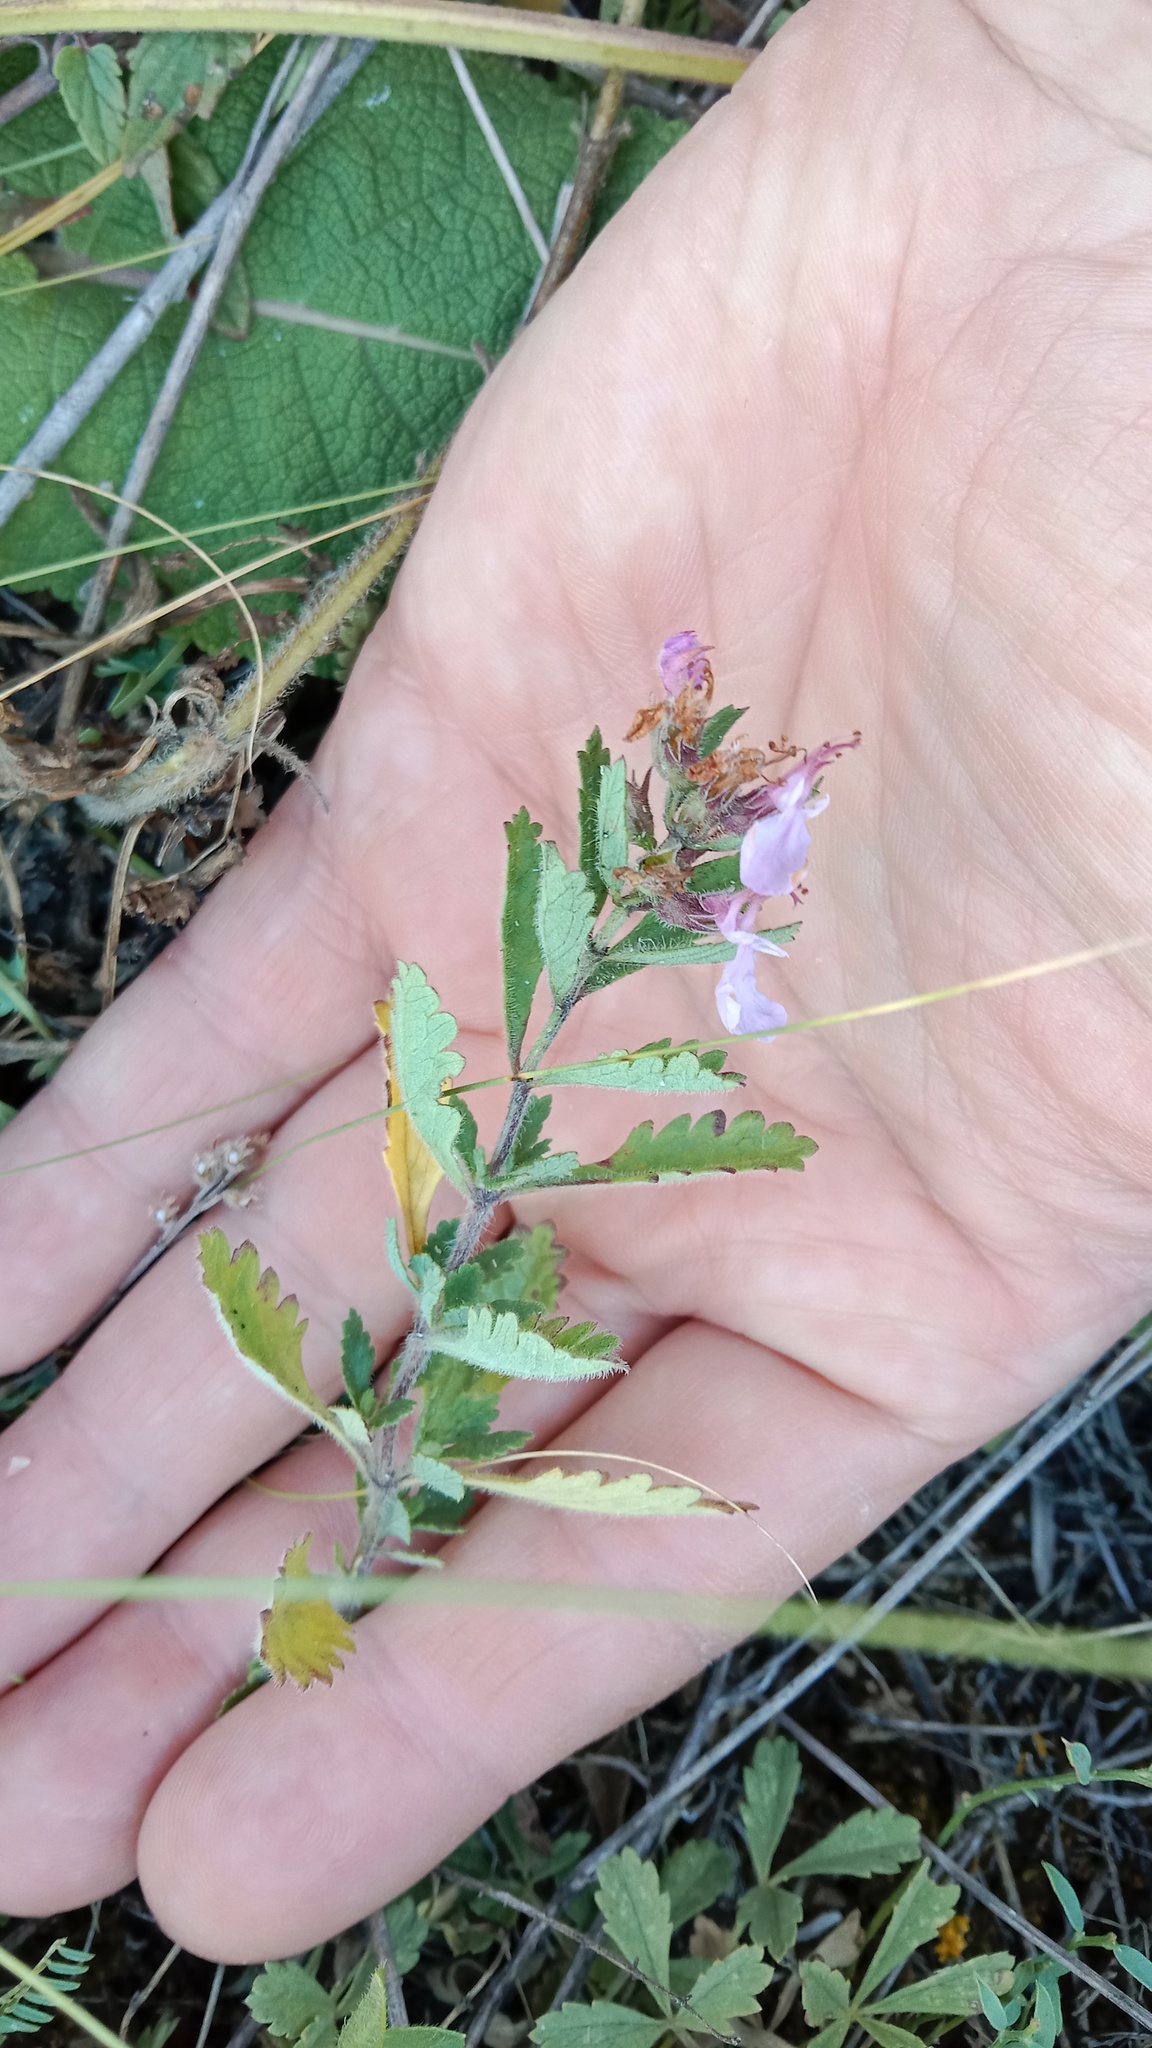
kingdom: Plantae
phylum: Tracheophyta
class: Magnoliopsida
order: Lamiales
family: Lamiaceae
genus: Teucrium
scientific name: Teucrium chamaedrys
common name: Wall germander
